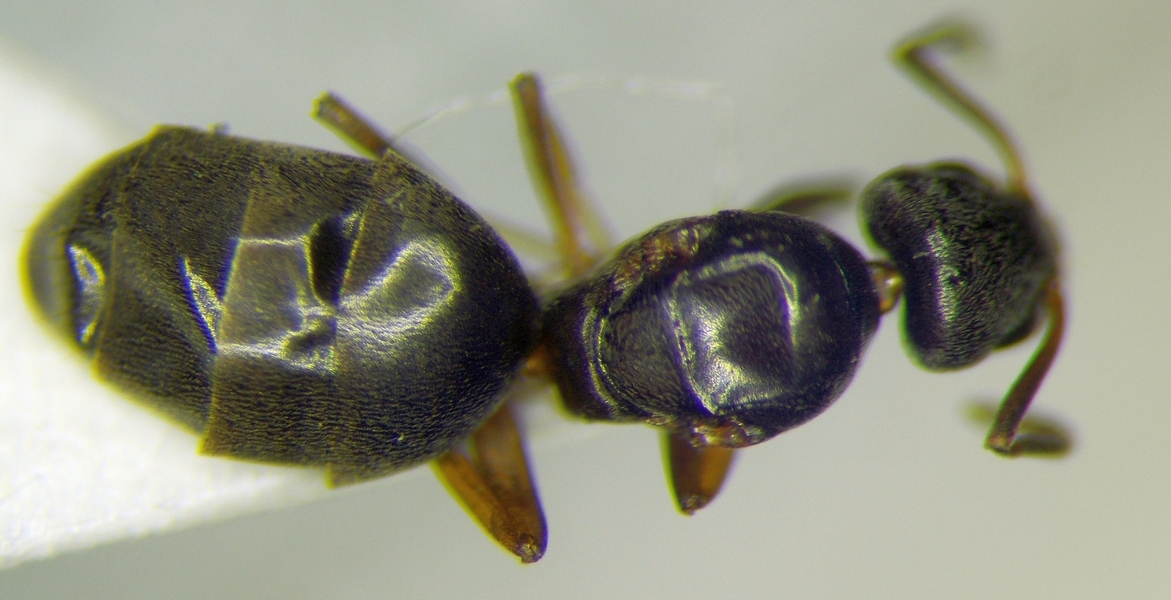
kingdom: Animalia
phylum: Arthropoda
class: Insecta
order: Hymenoptera
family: Formicidae
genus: Tapinoma
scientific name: Tapinoma sessile
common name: Odorous house ant
